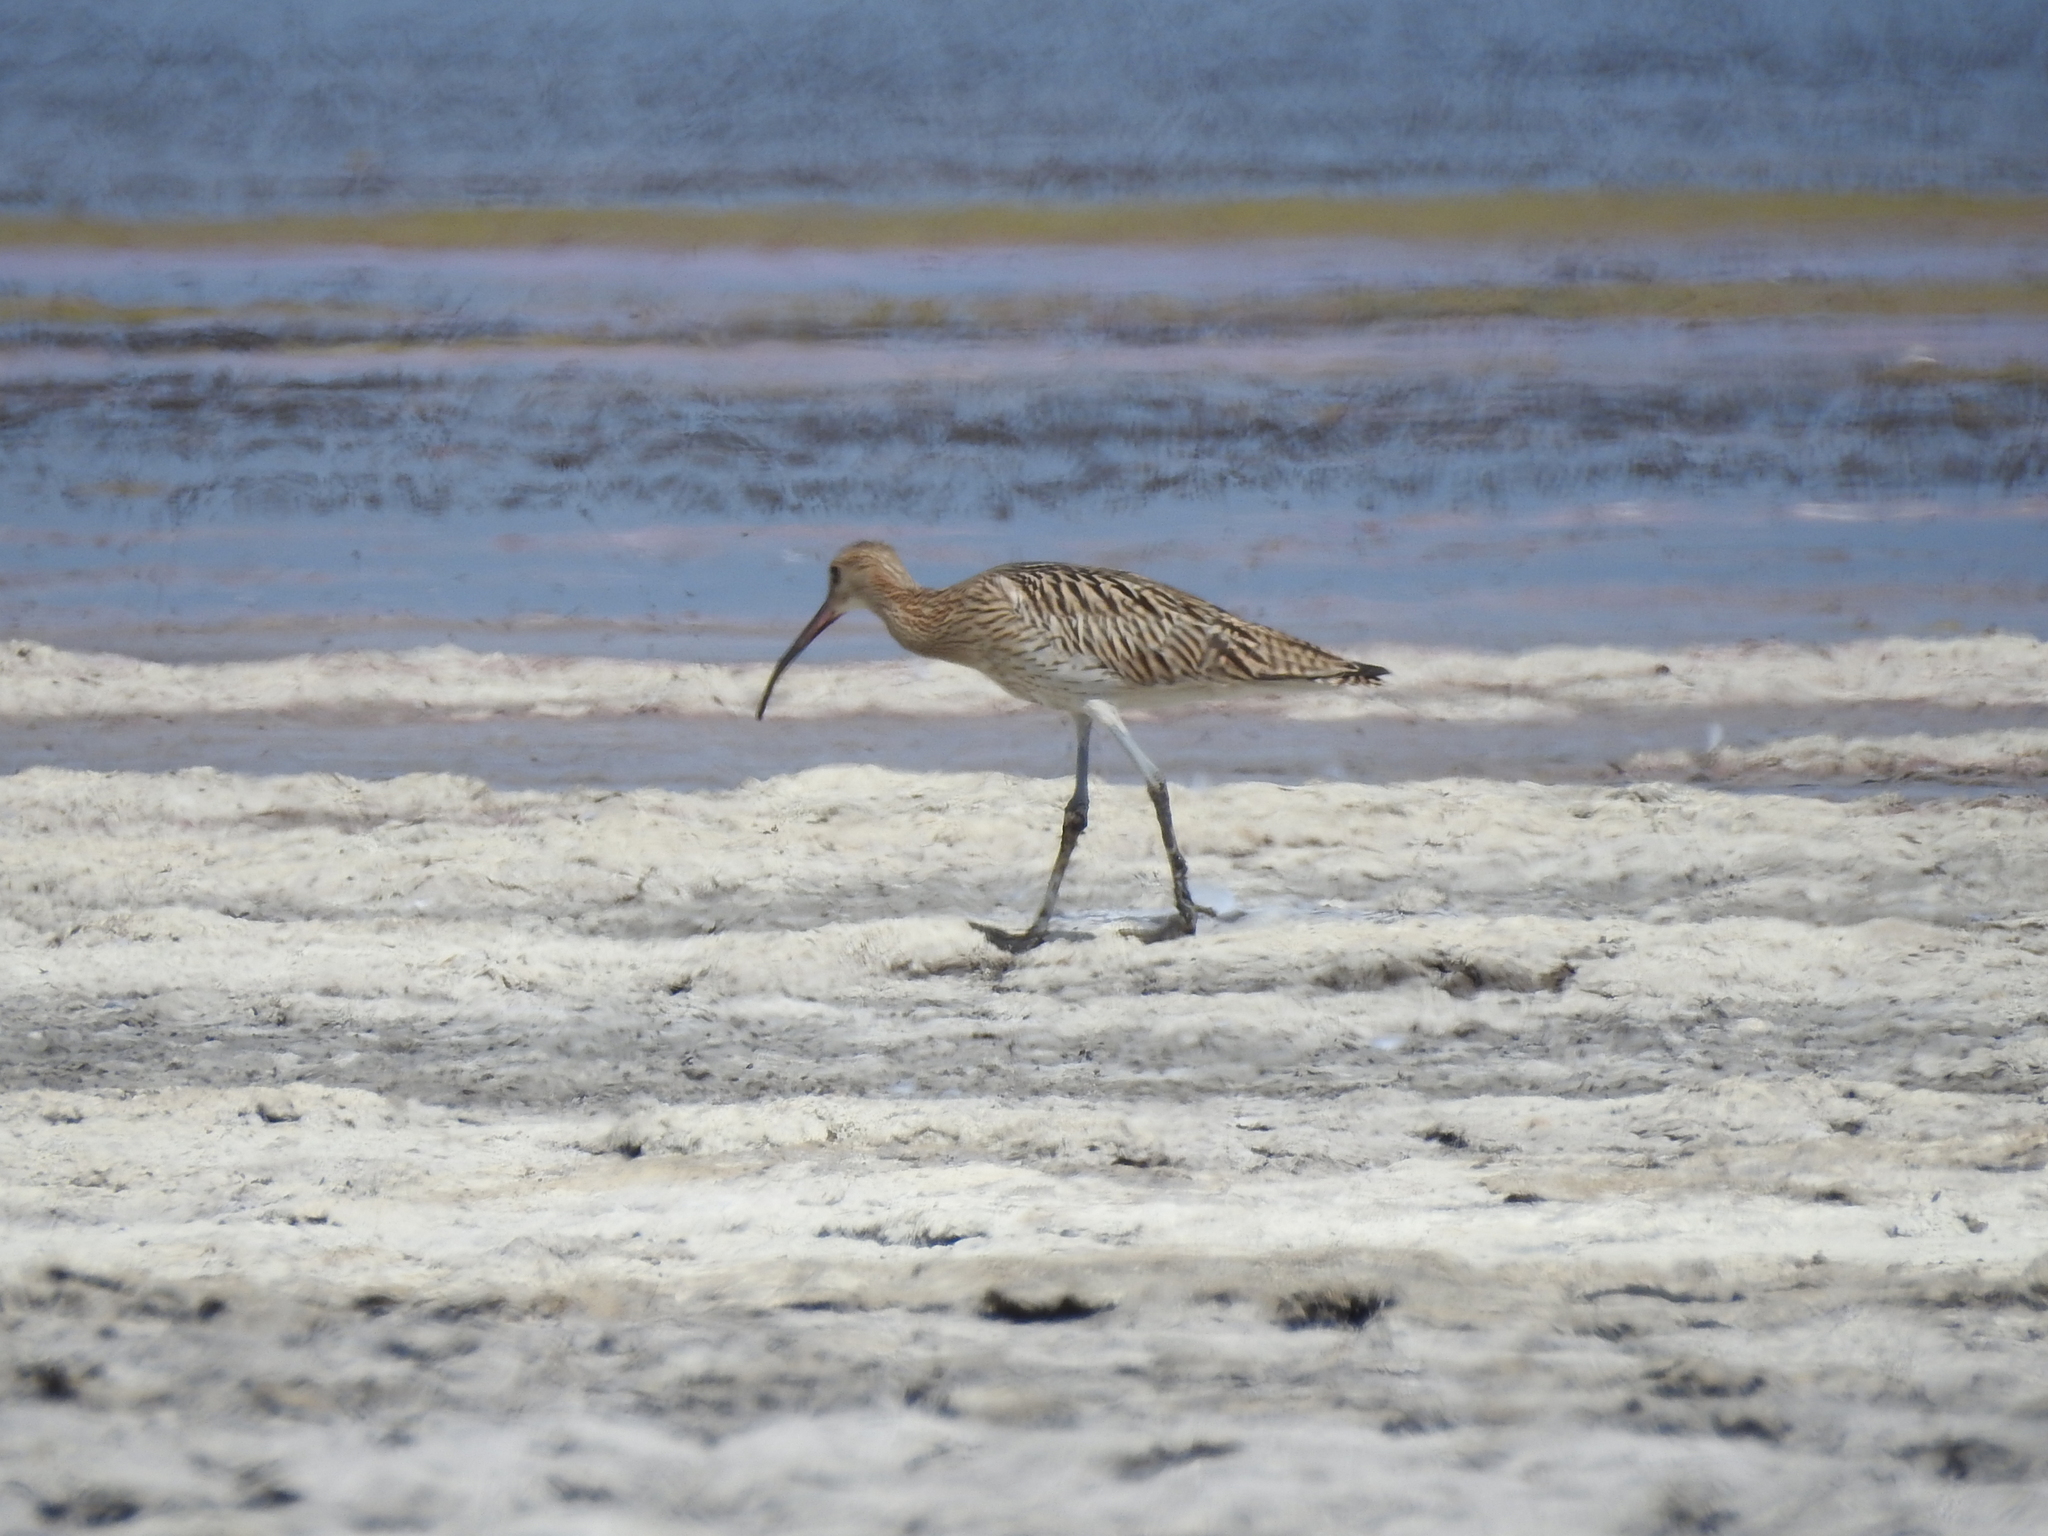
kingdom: Animalia
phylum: Chordata
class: Aves
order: Charadriiformes
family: Scolopacidae
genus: Numenius
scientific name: Numenius arquata
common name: Eurasian curlew
